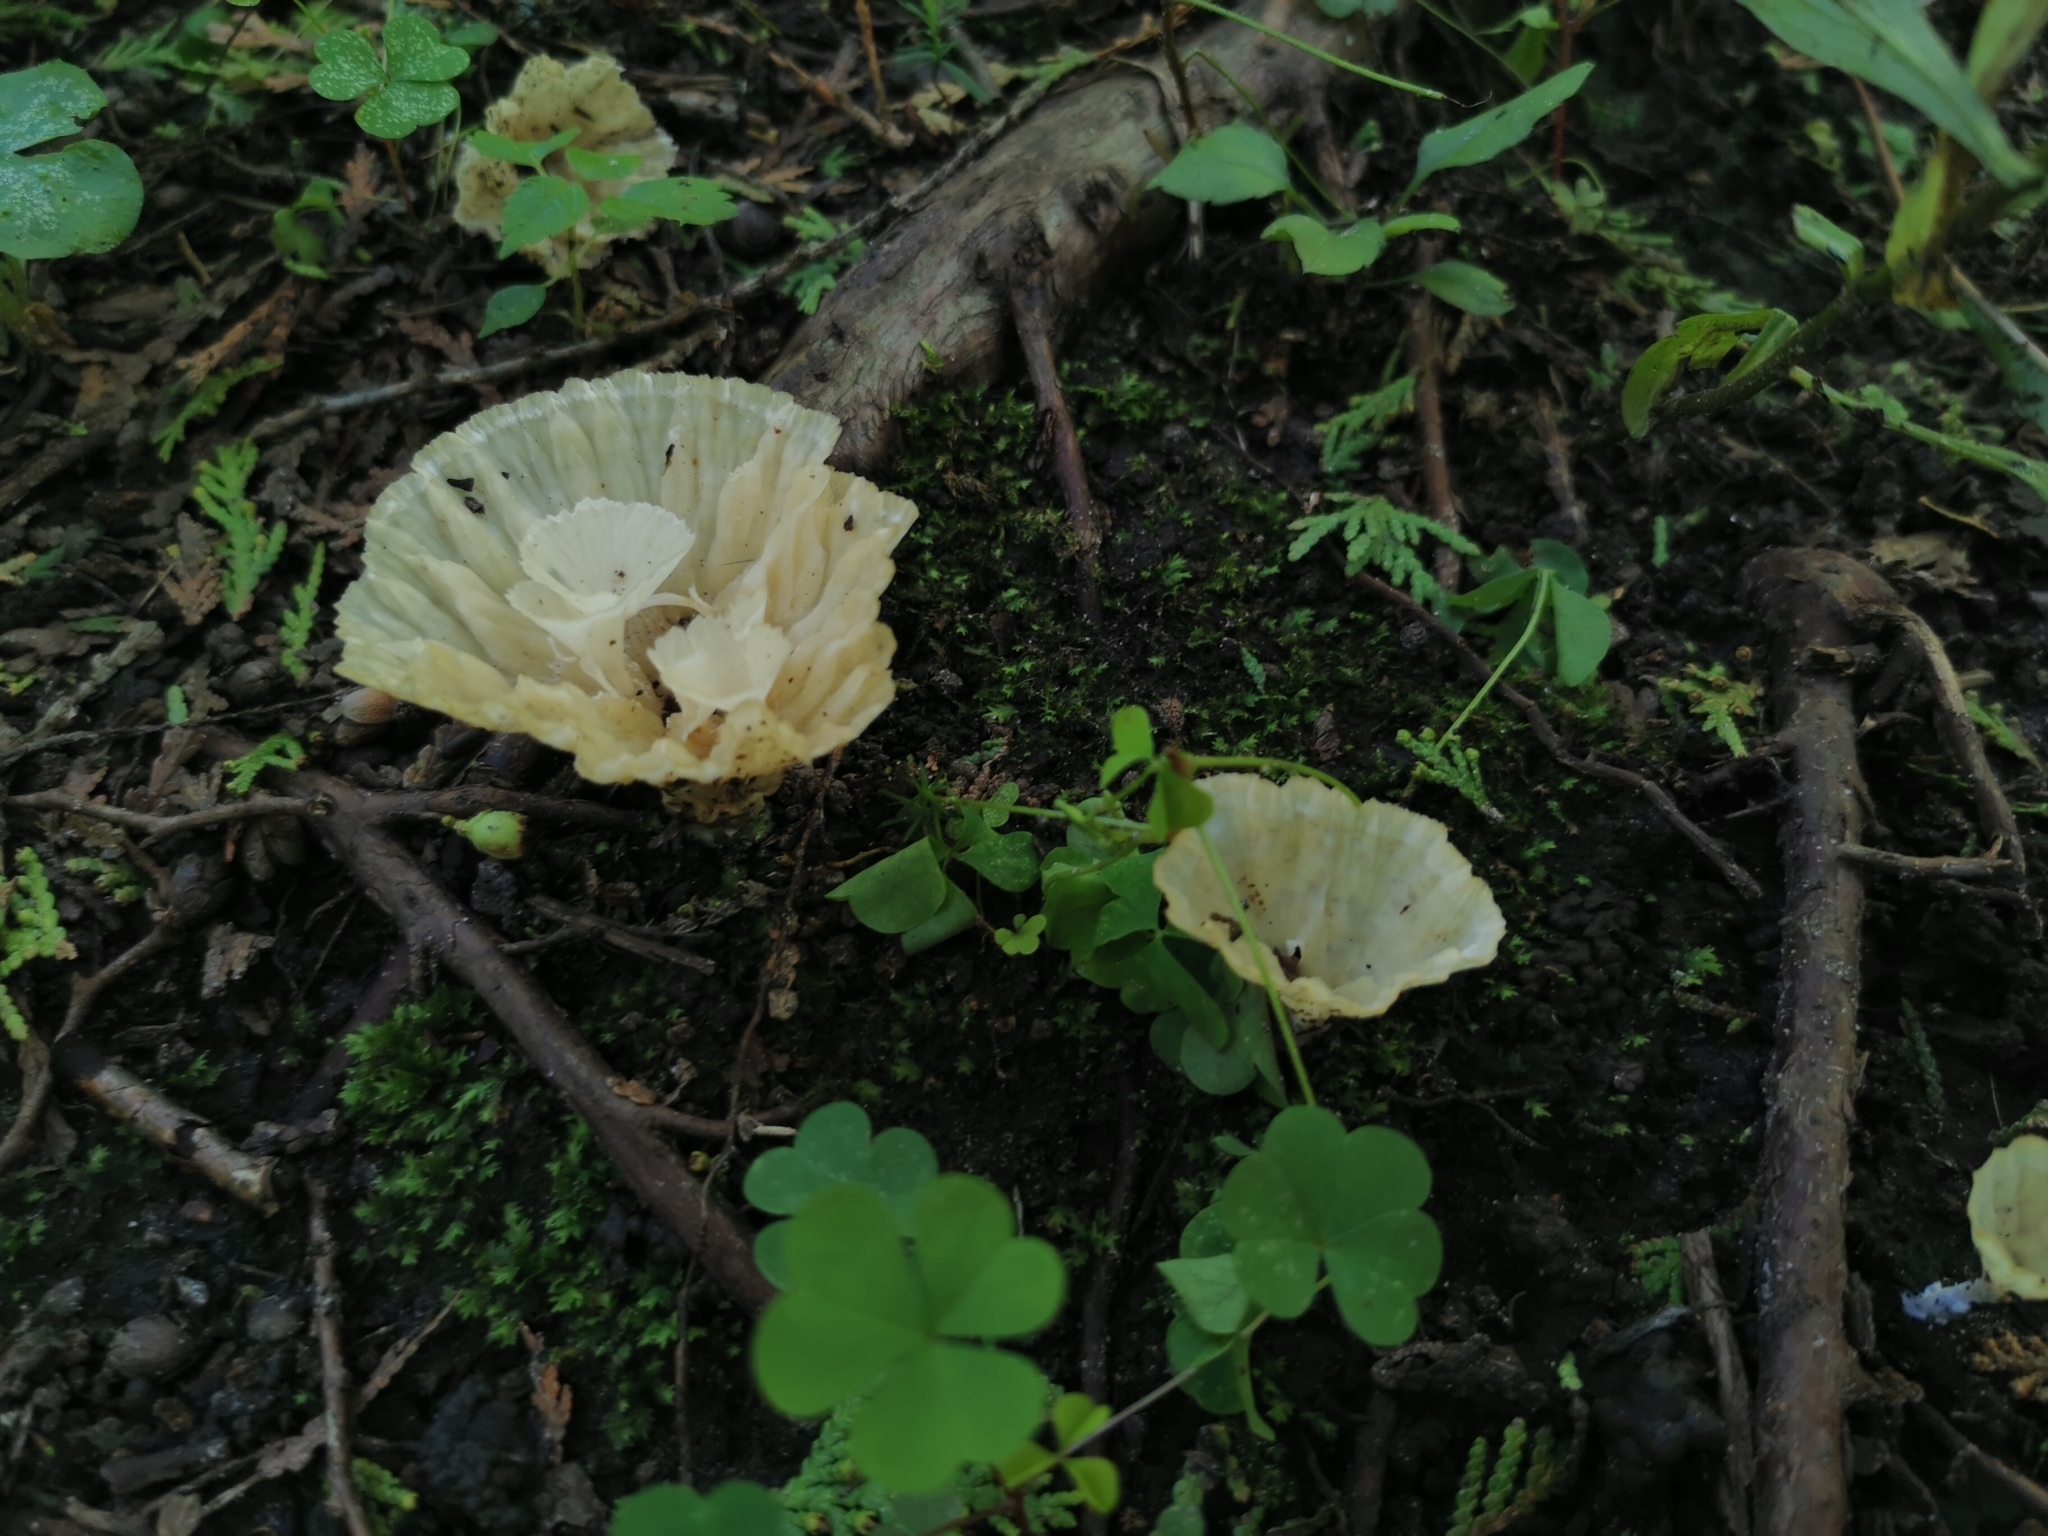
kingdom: Fungi
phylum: Basidiomycota
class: Agaricomycetes
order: Hymenochaetales
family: Rickenellaceae
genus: Cotylidia
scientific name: Cotylidia diaphana
